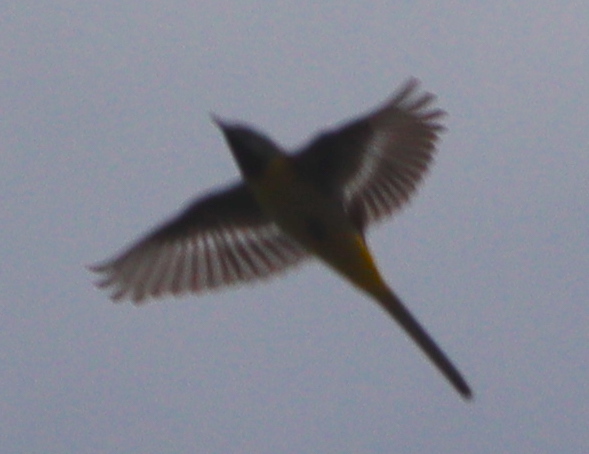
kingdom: Animalia
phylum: Chordata
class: Aves
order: Passeriformes
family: Motacillidae
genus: Motacilla
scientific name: Motacilla cinerea
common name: Grey wagtail
